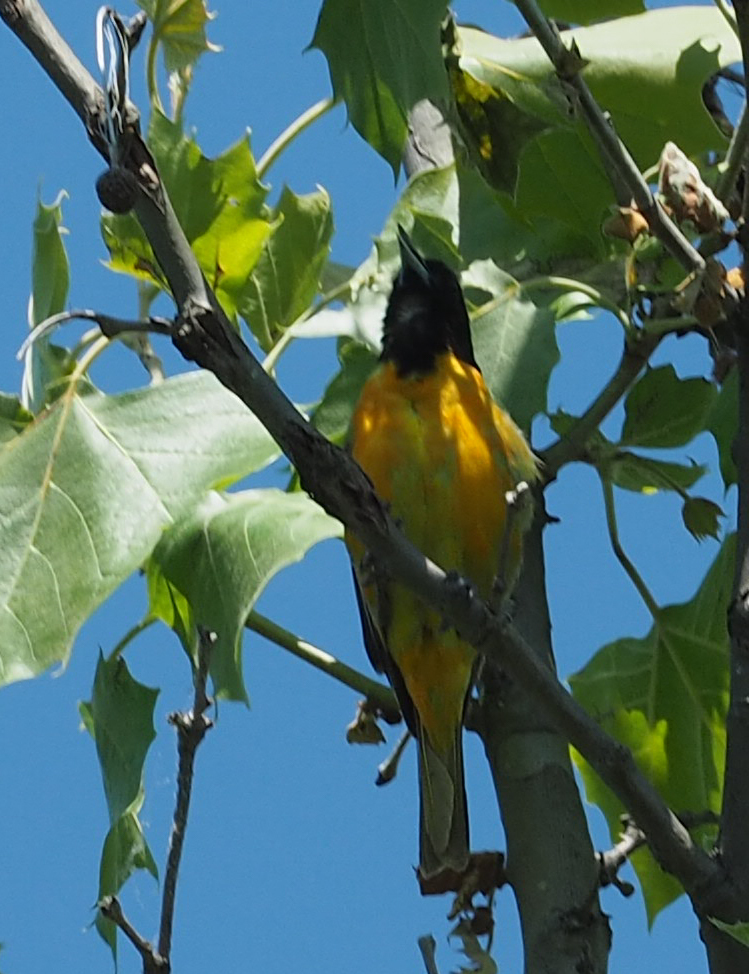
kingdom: Animalia
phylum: Chordata
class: Aves
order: Passeriformes
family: Icteridae
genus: Icterus
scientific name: Icterus galbula
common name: Baltimore oriole
